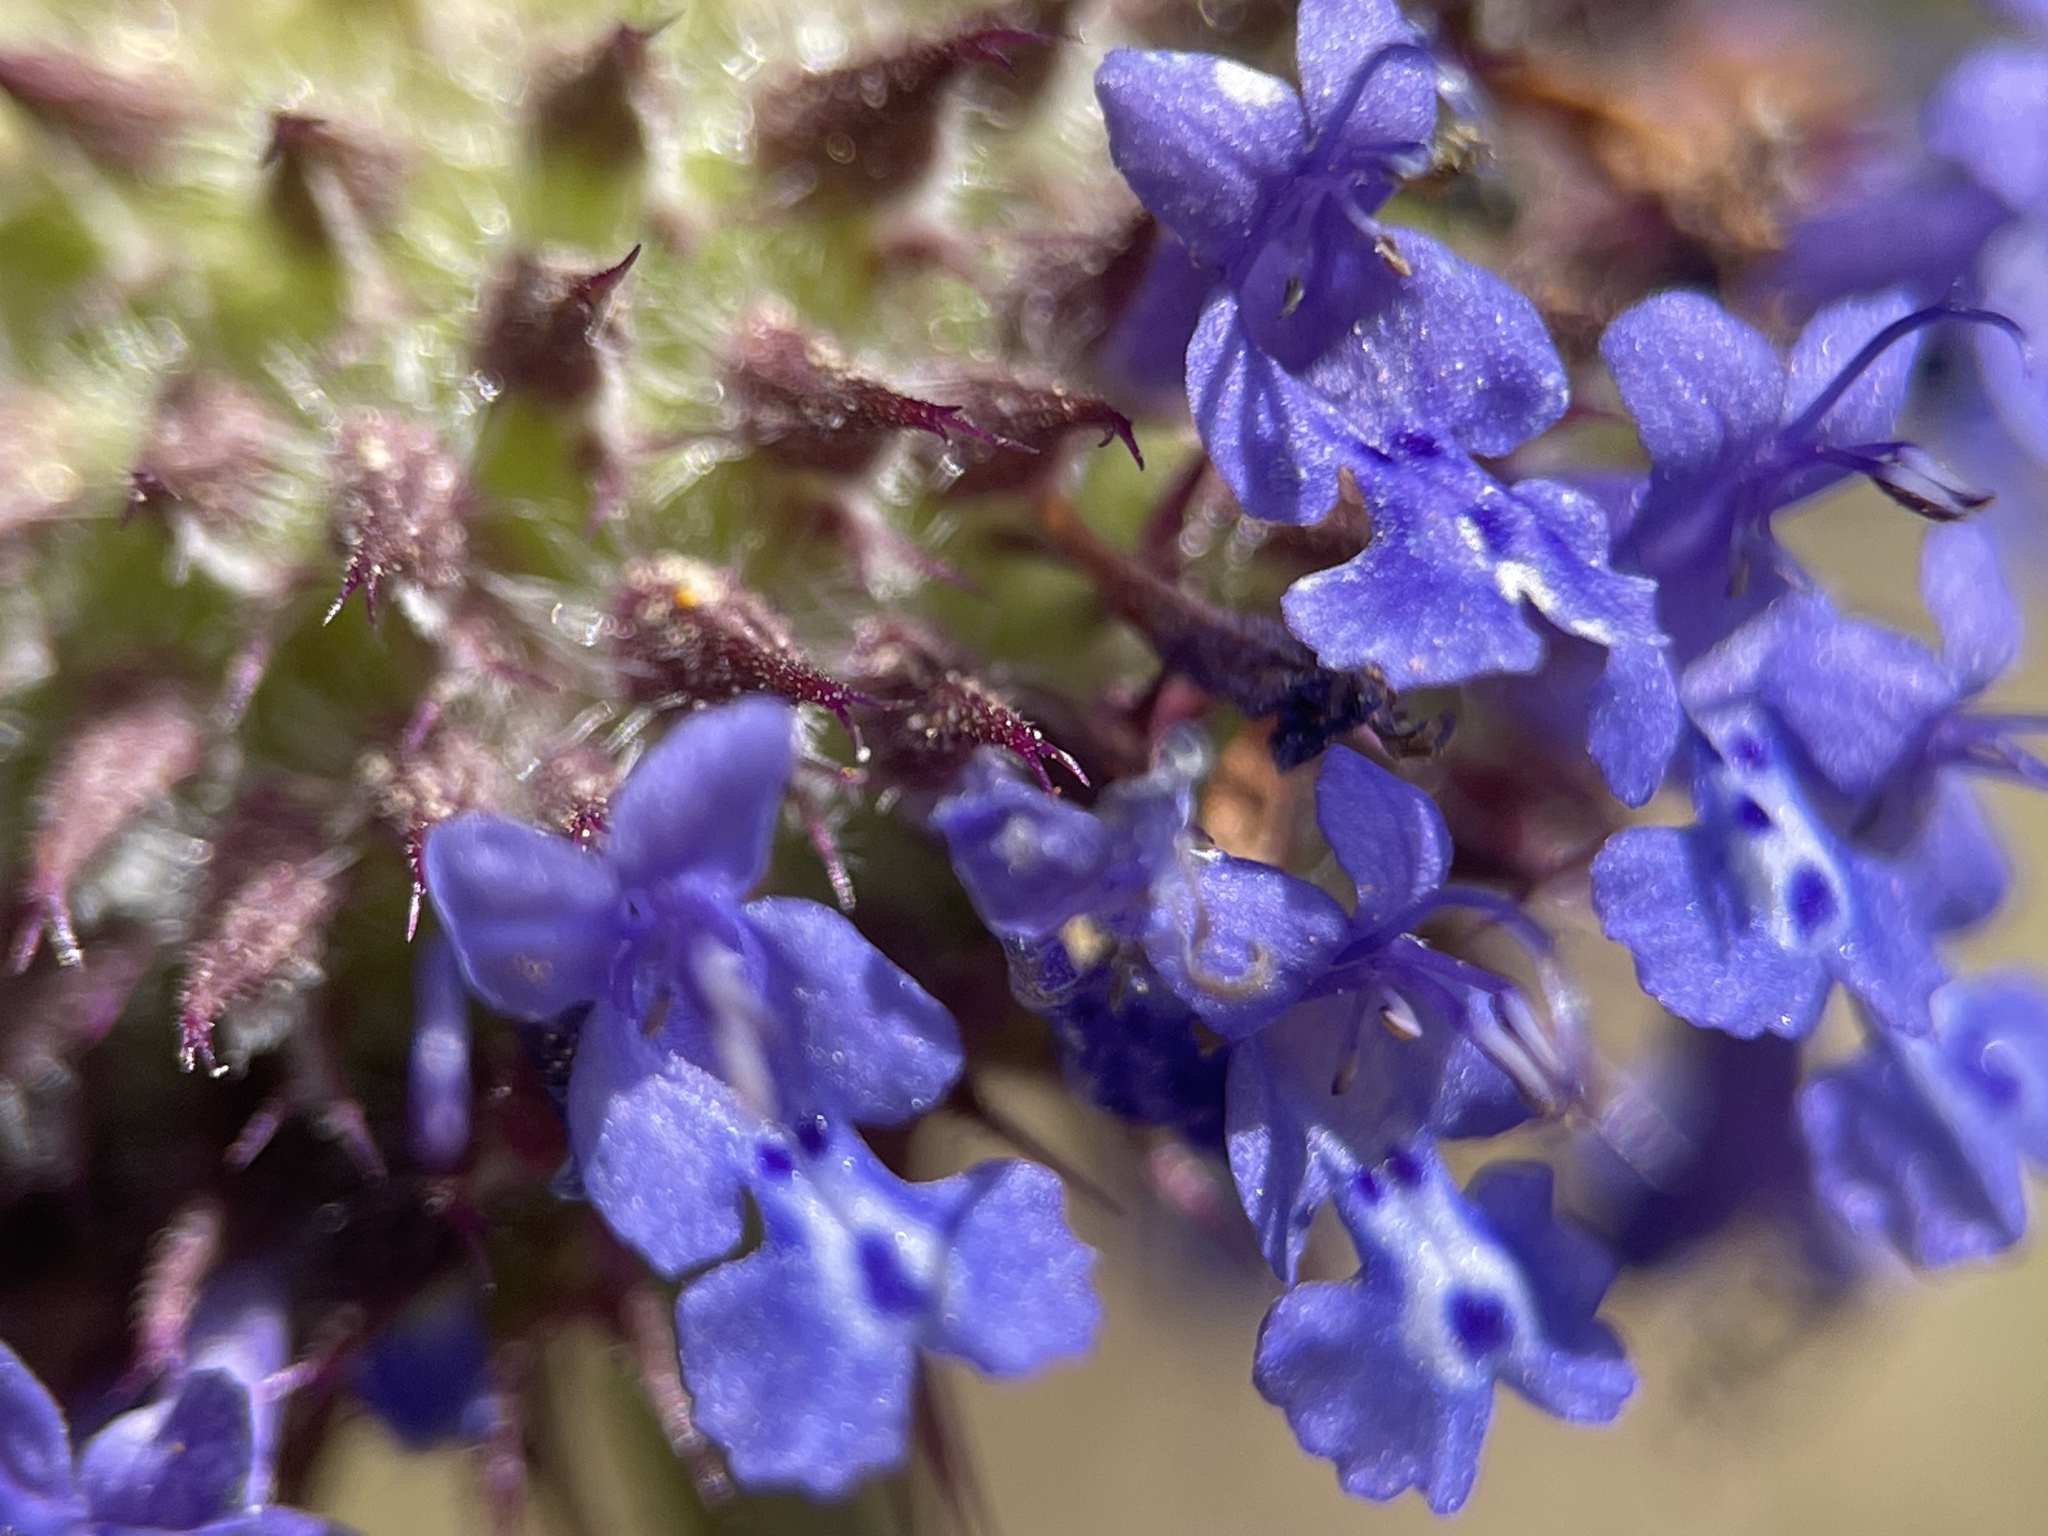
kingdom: Plantae
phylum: Tracheophyta
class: Magnoliopsida
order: Lamiales
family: Lamiaceae
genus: Salvia
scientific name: Salvia columbariae
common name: Chia
